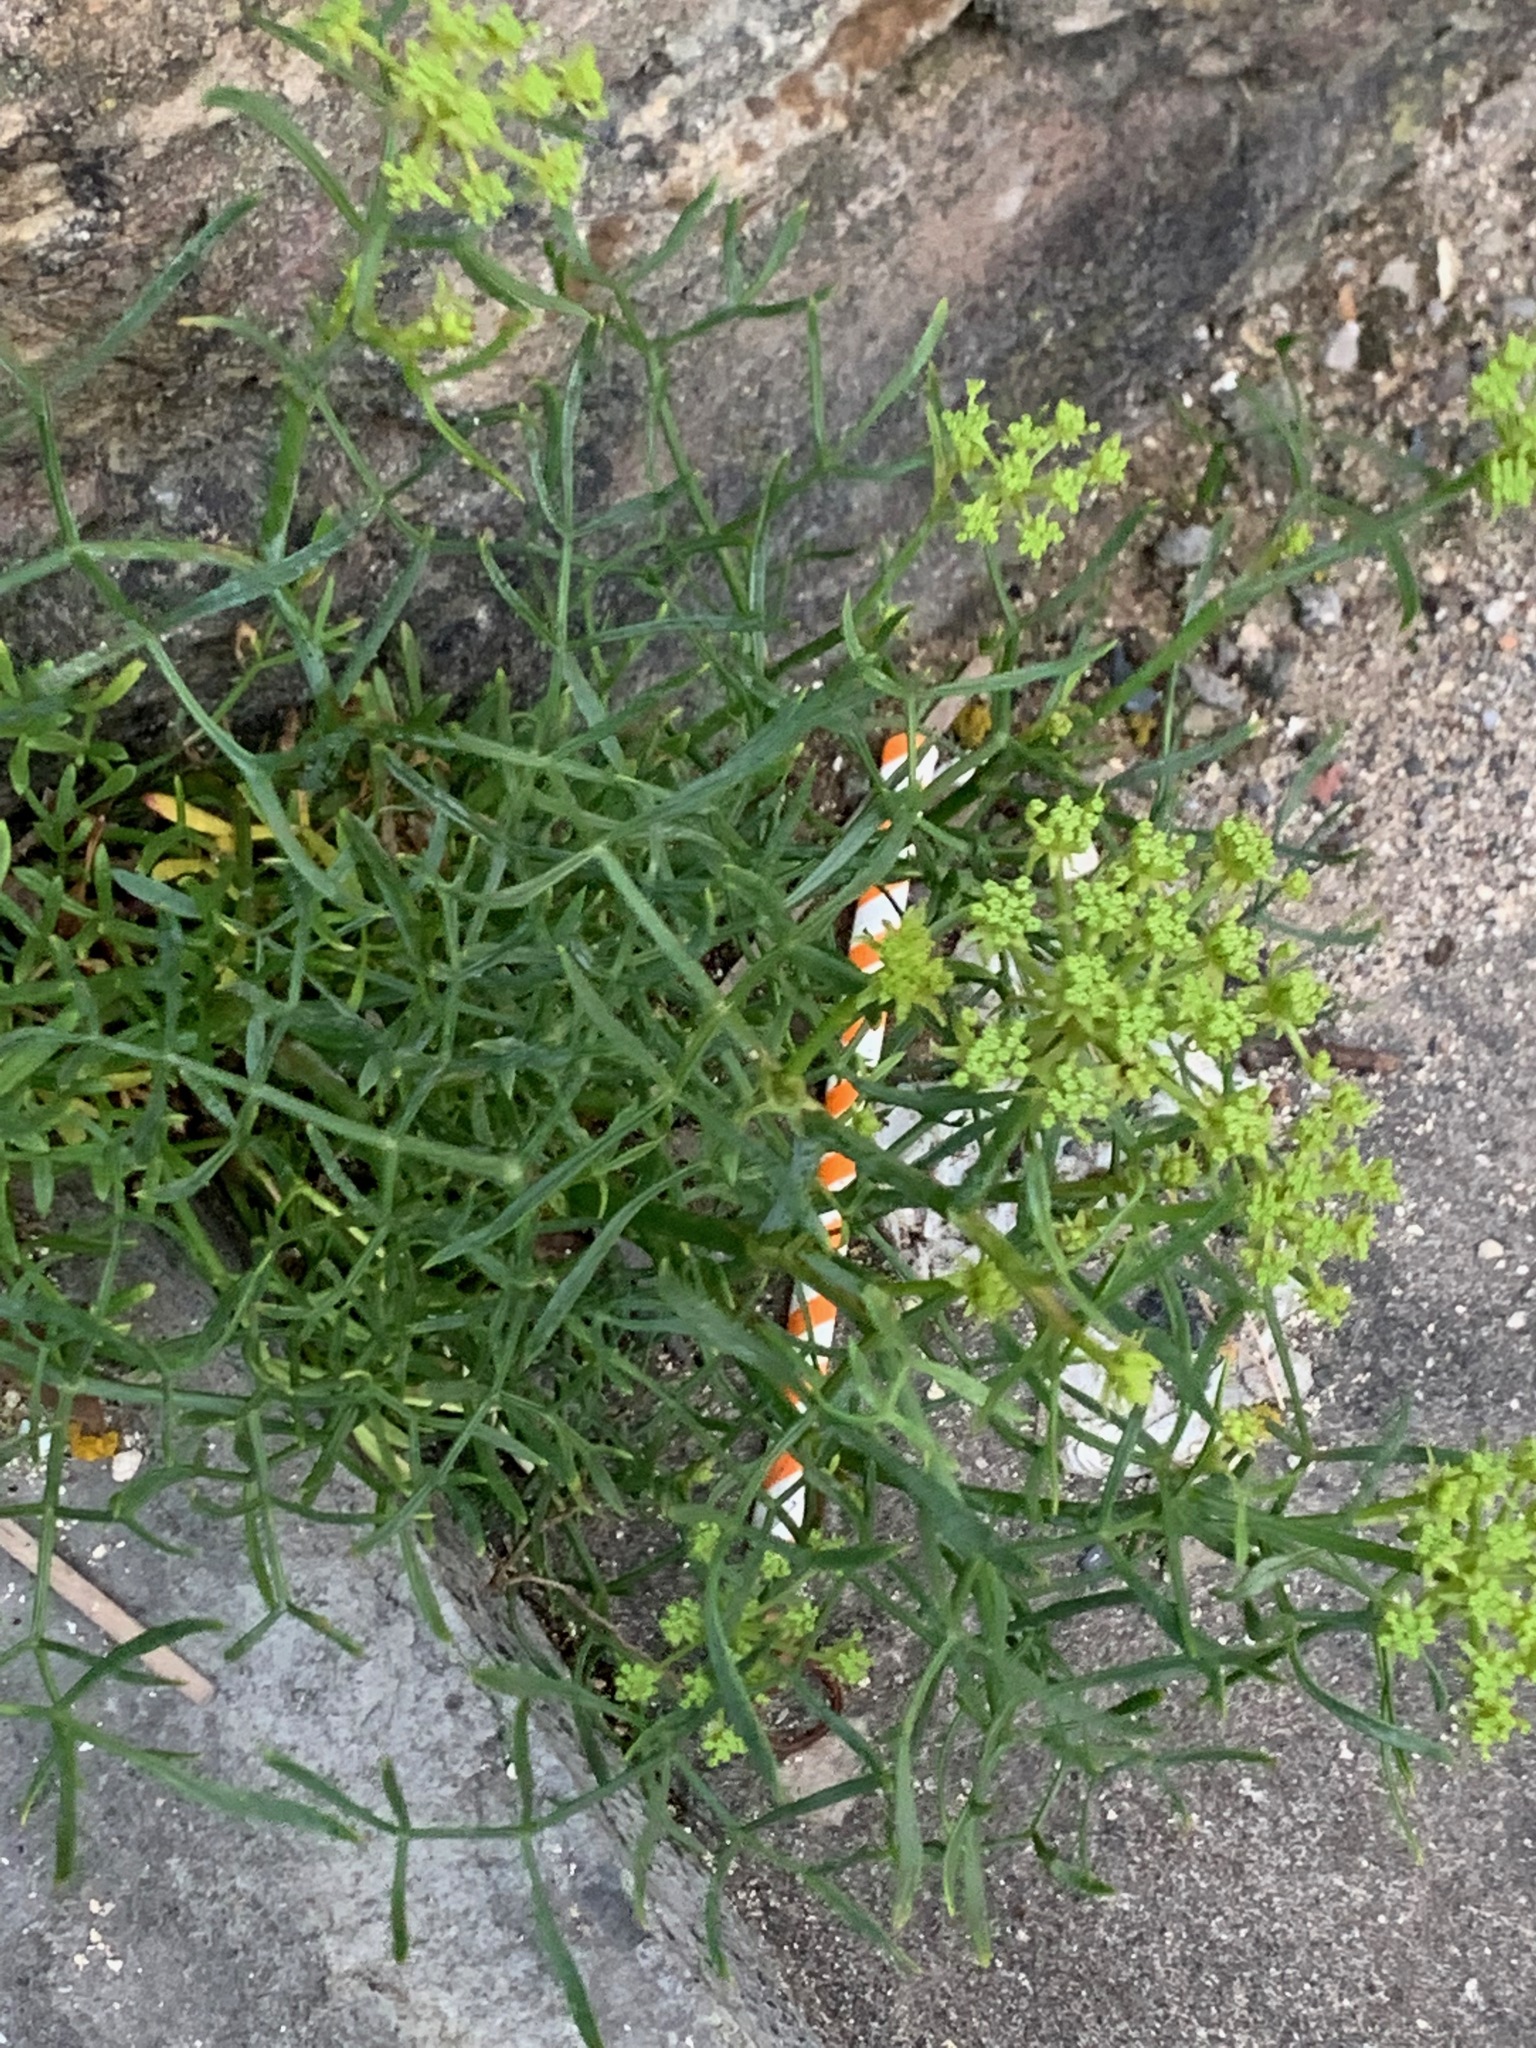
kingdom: Plantae
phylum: Tracheophyta
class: Magnoliopsida
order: Apiales
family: Apiaceae
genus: Crithmum
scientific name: Crithmum maritimum
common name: Rock samphire
